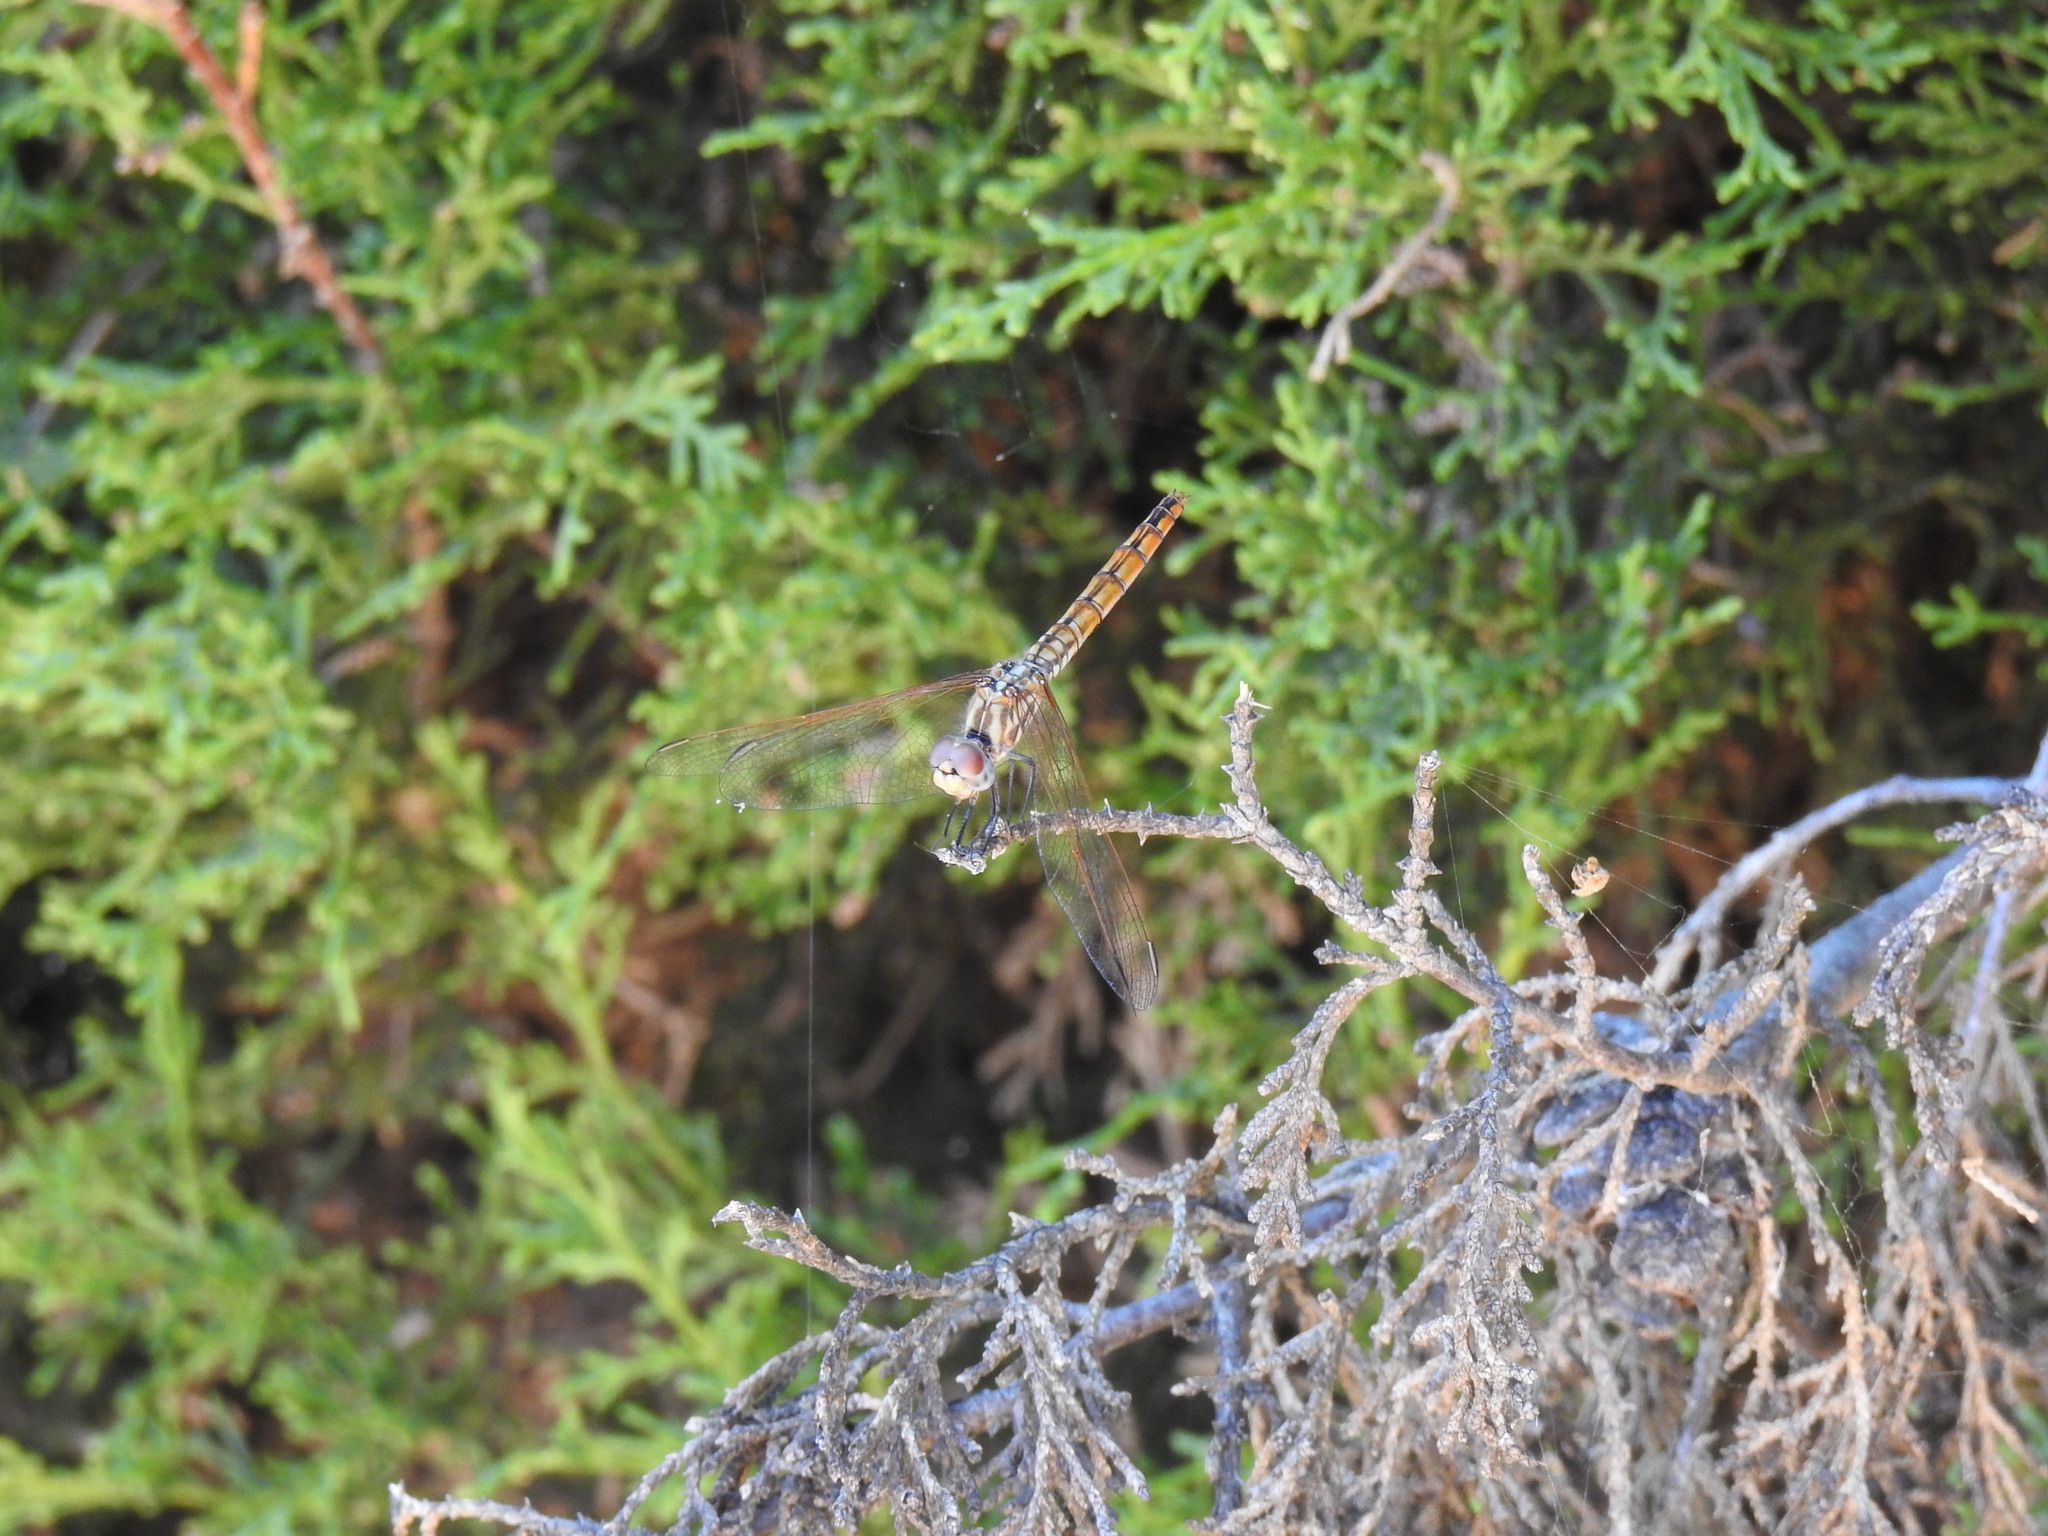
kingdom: Animalia
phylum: Arthropoda
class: Insecta
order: Odonata
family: Libellulidae
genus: Trithemis
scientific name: Trithemis annulata
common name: Violet dropwing
